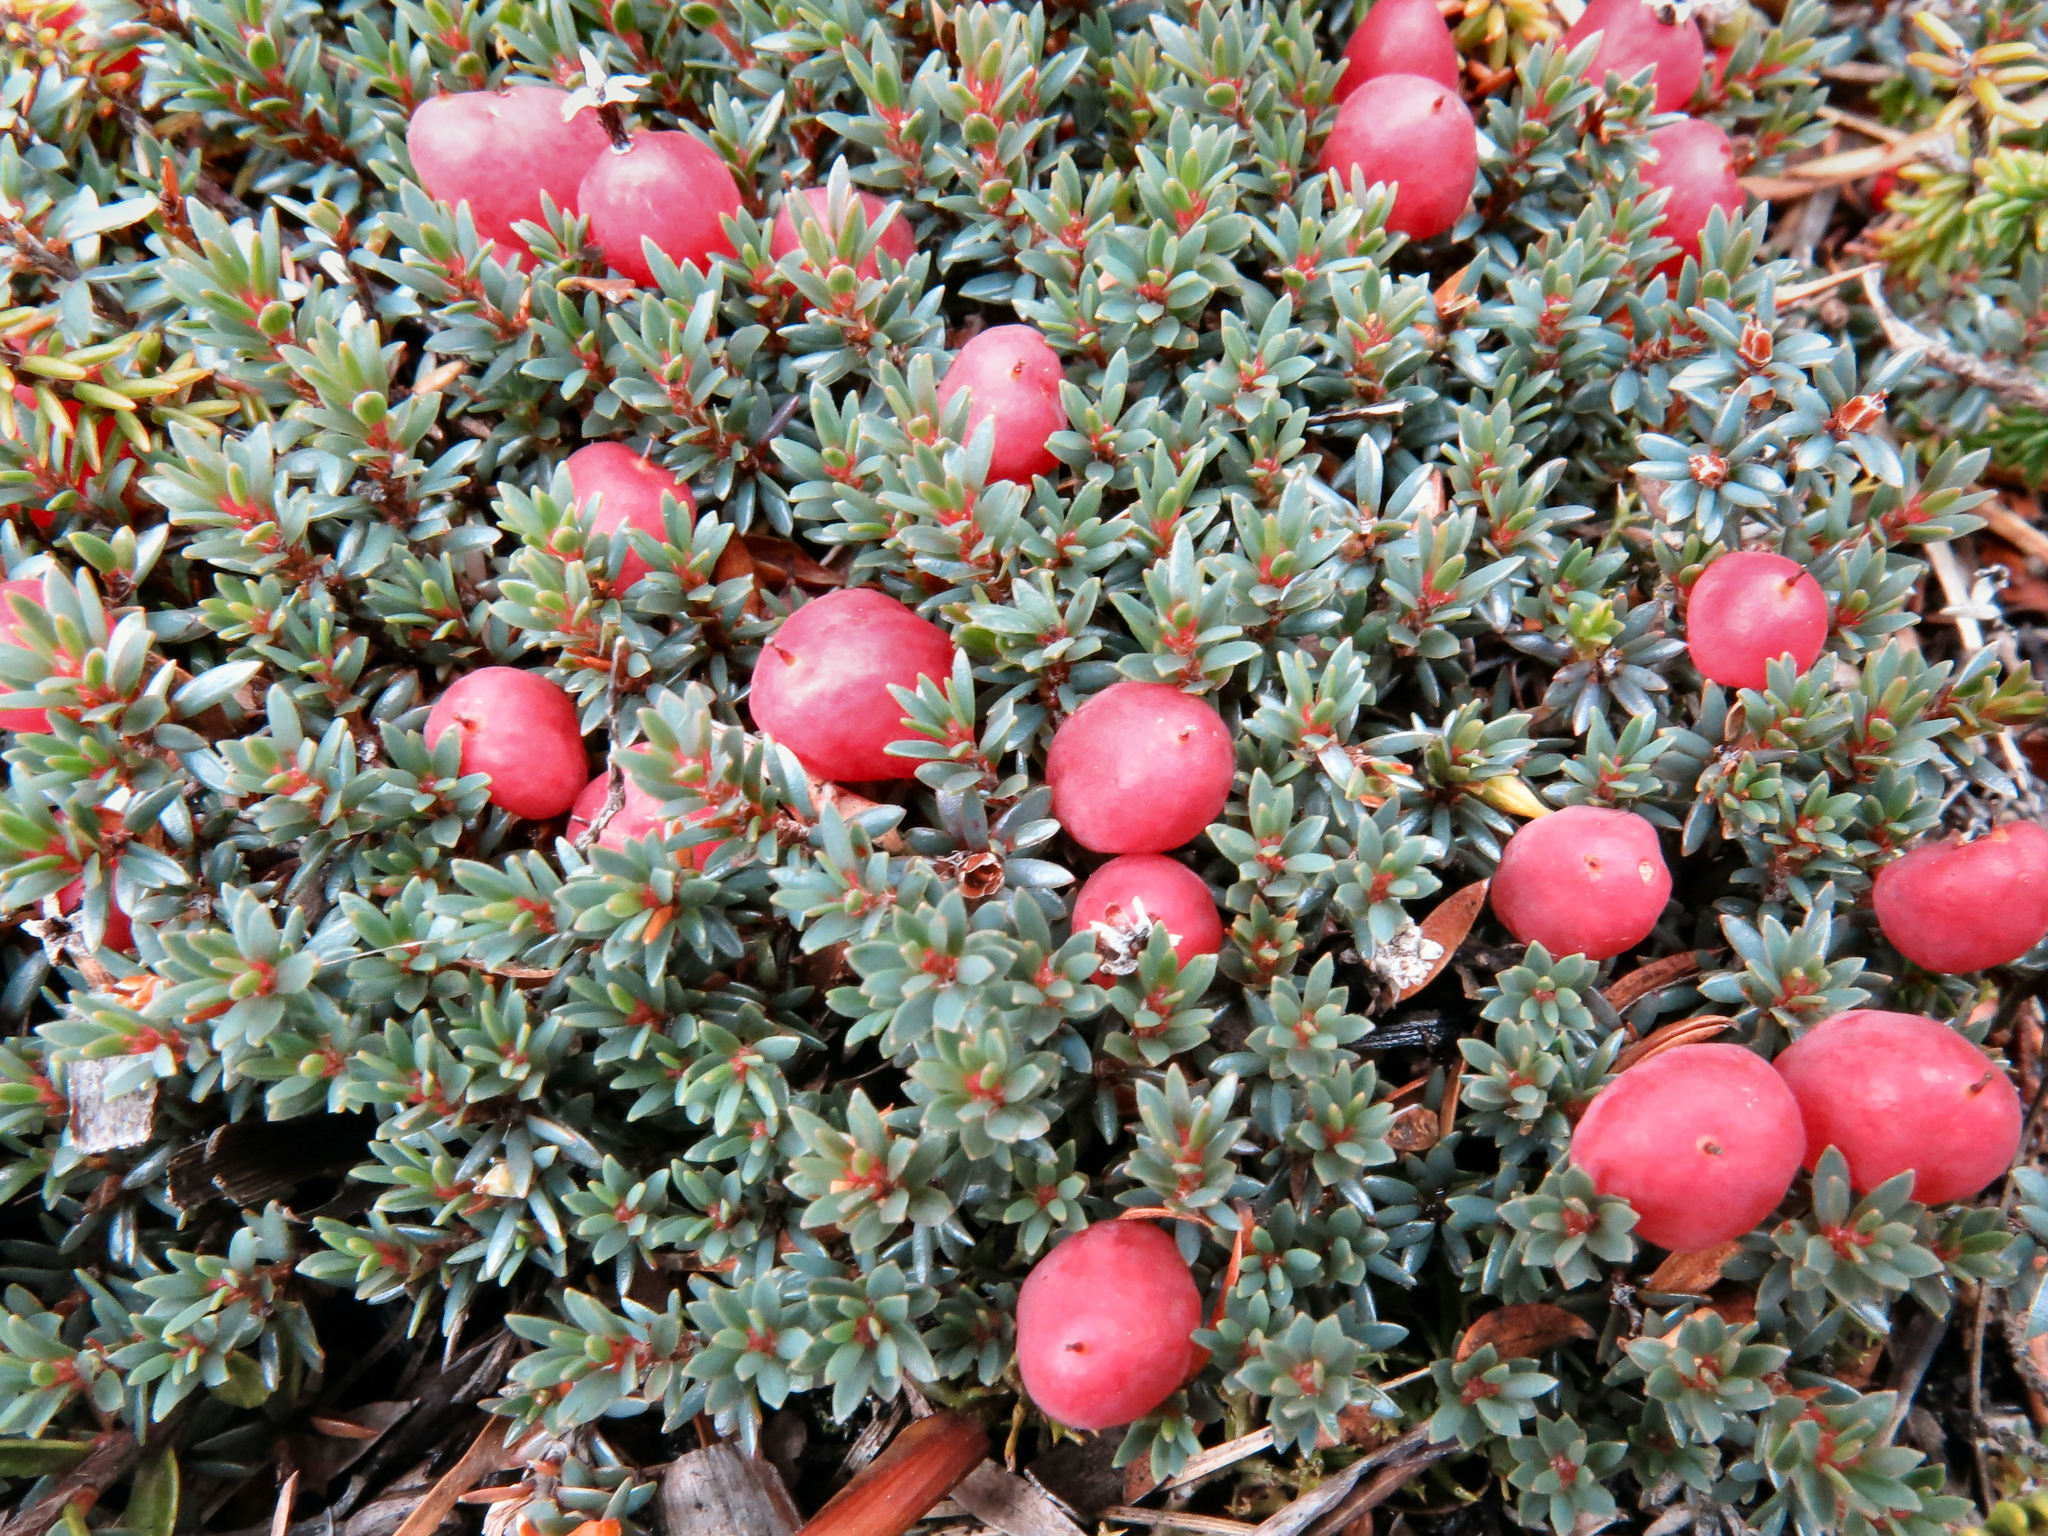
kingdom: Plantae
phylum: Tracheophyta
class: Magnoliopsida
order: Ericales
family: Ericaceae
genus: Pentachondra
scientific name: Pentachondra pumila
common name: Carpet-heath
